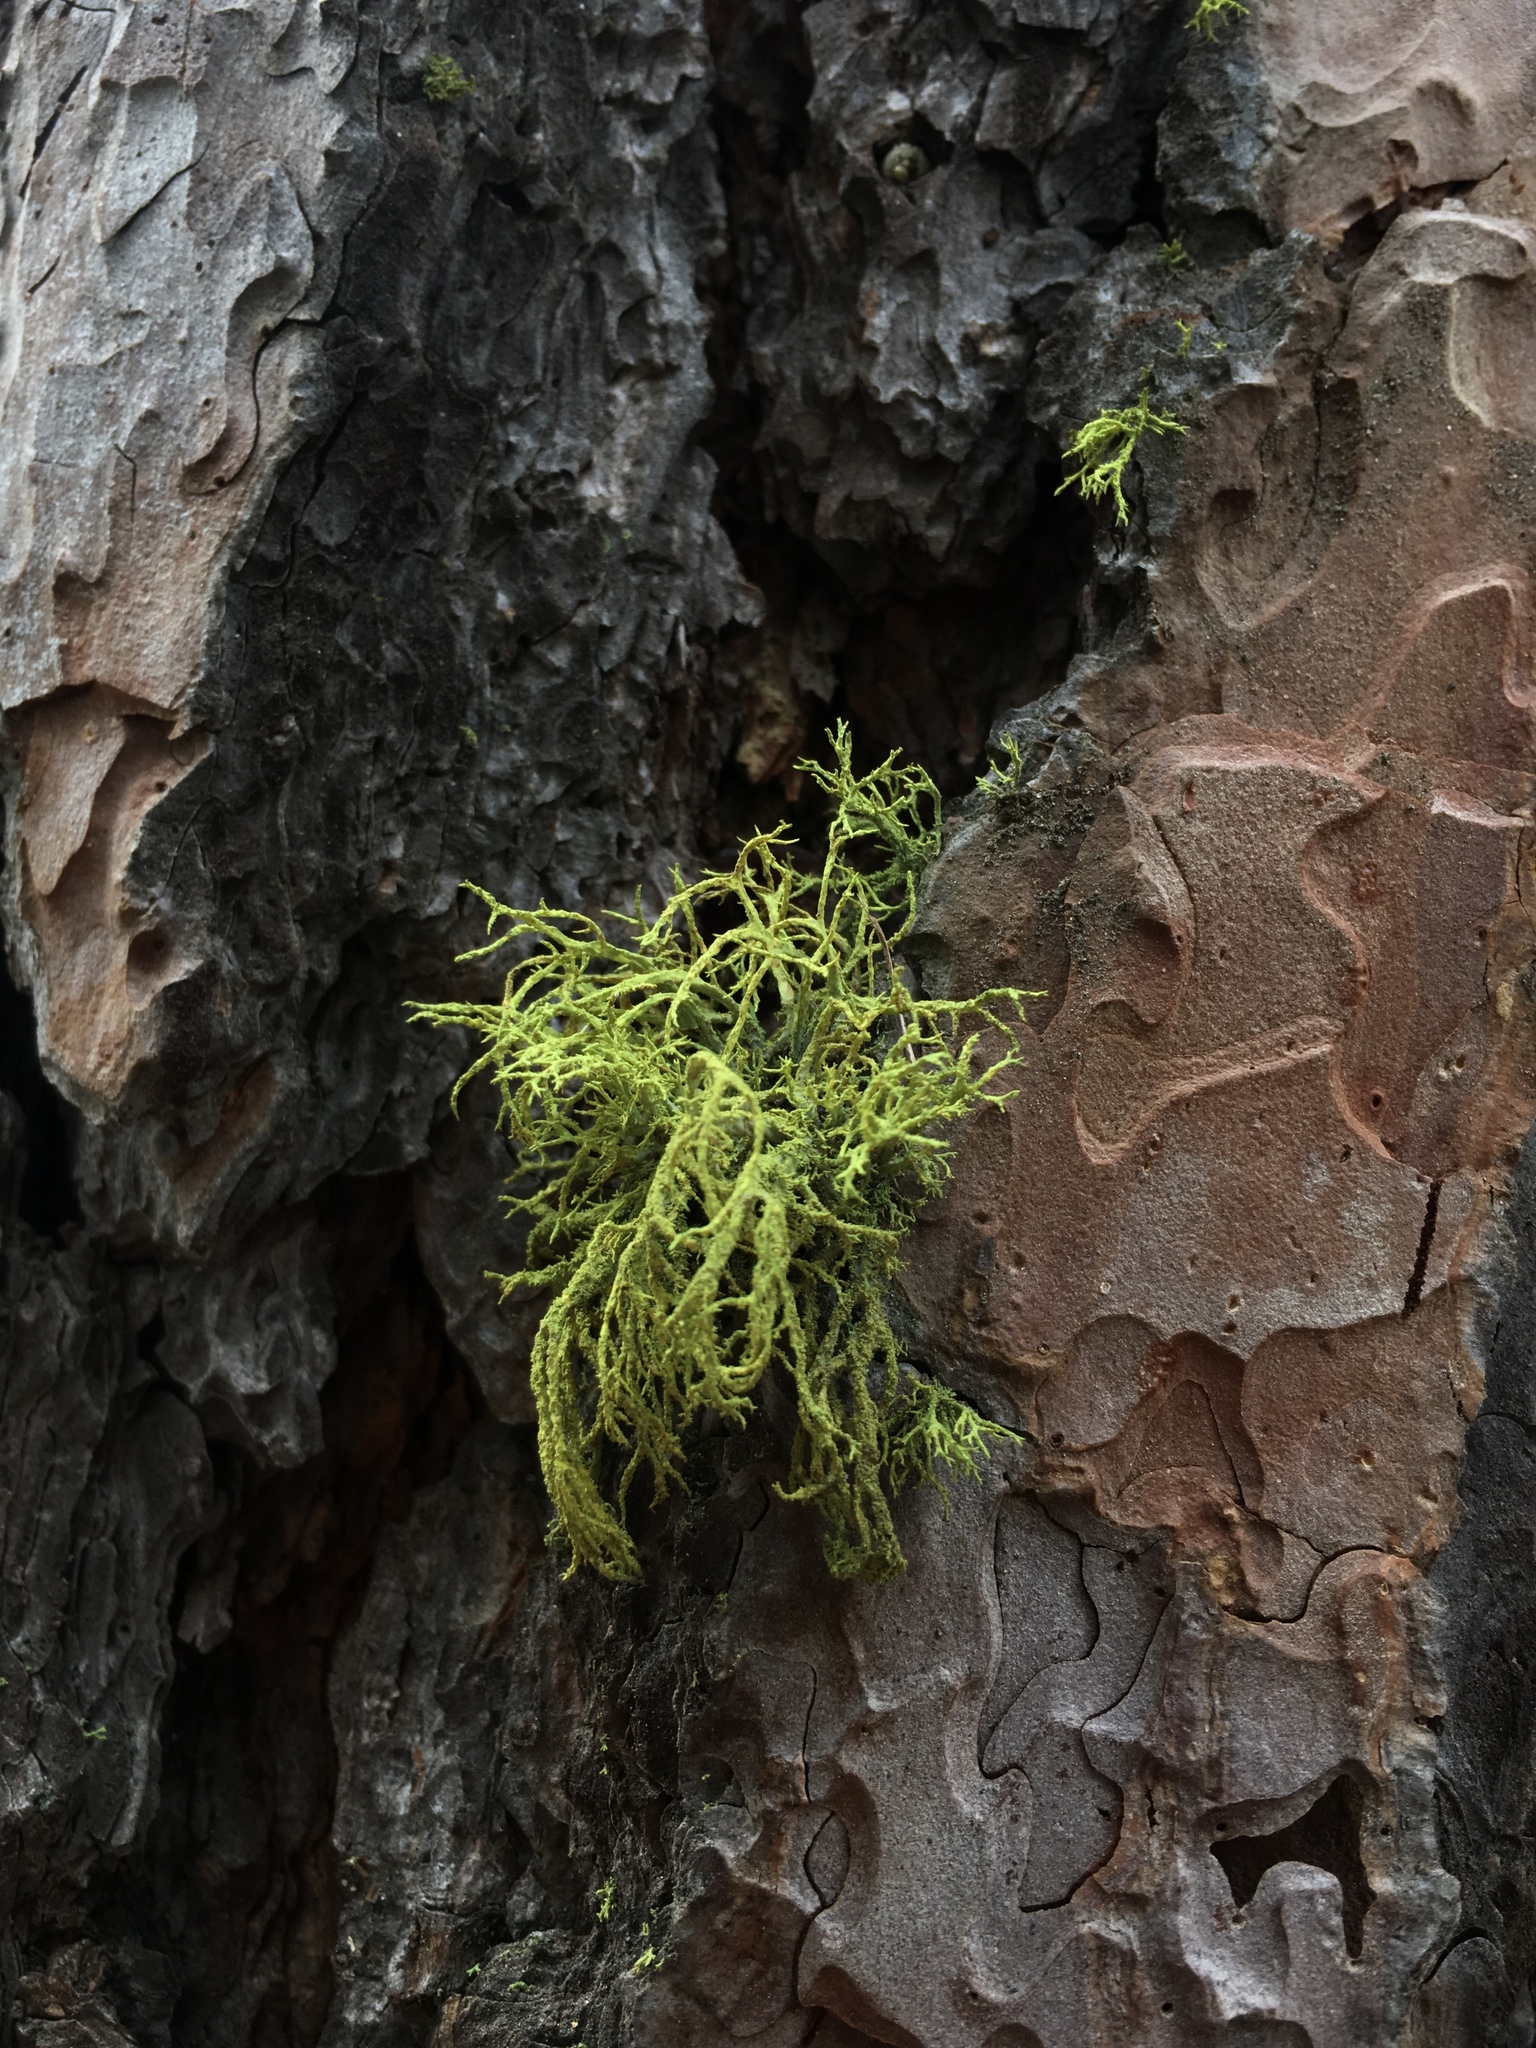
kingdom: Fungi
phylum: Ascomycota
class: Lecanoromycetes
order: Lecanorales
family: Parmeliaceae
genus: Letharia
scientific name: Letharia vulpina
